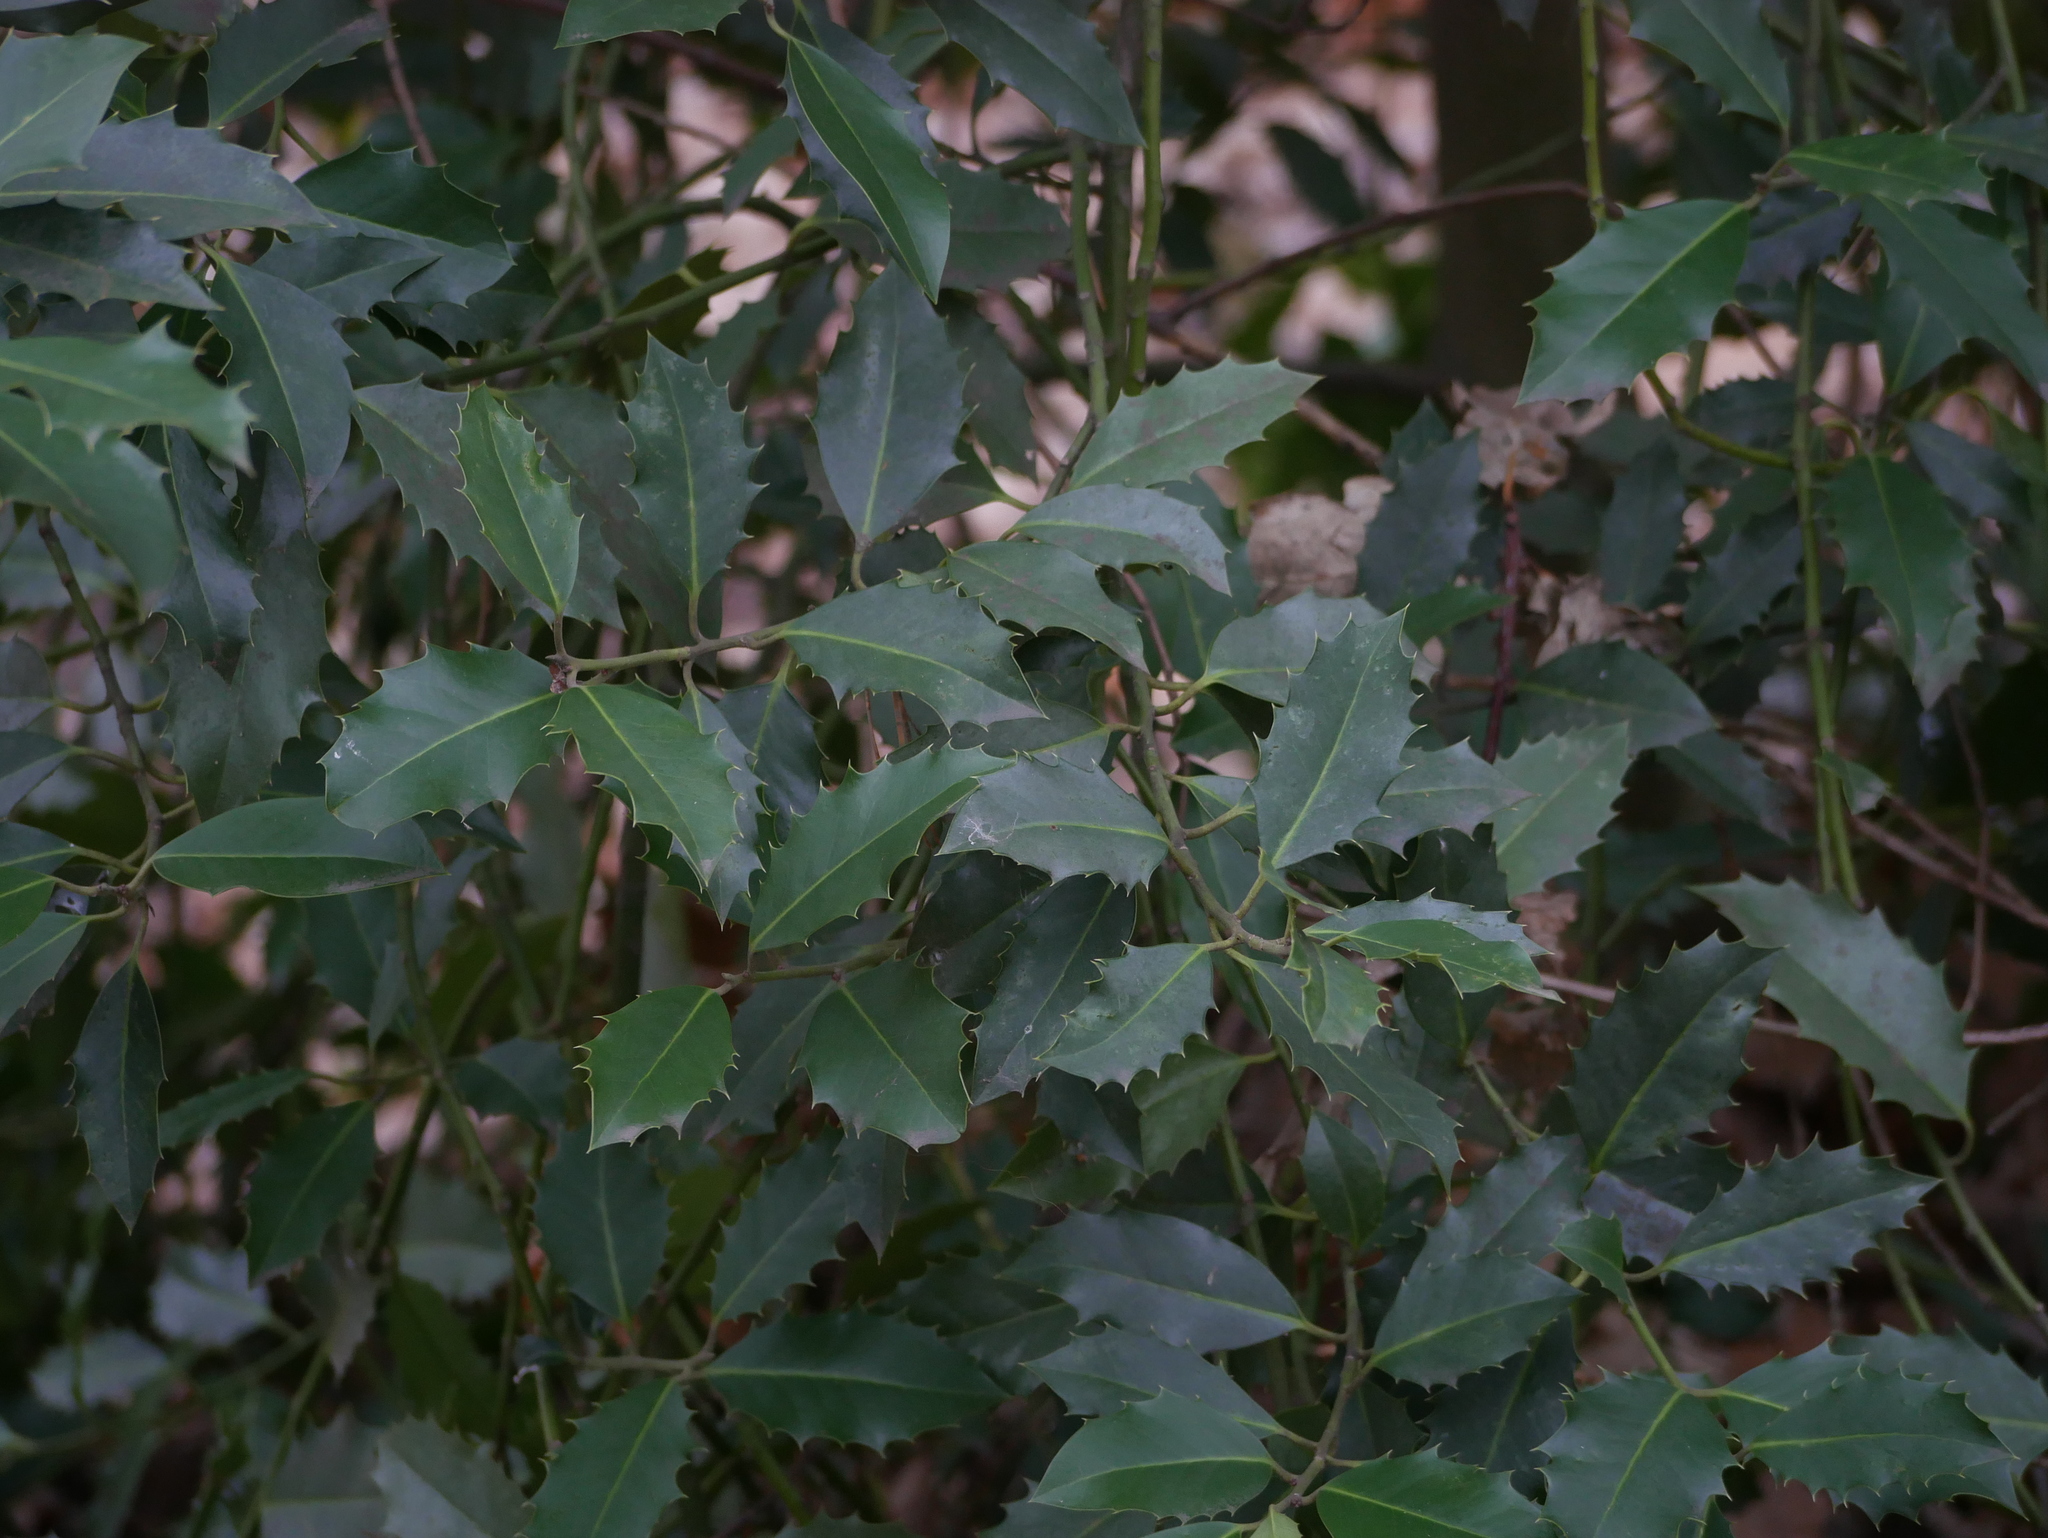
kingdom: Plantae
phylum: Tracheophyta
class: Magnoliopsida
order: Aquifoliales
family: Aquifoliaceae
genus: Ilex
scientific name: Ilex aquifolium
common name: English holly
